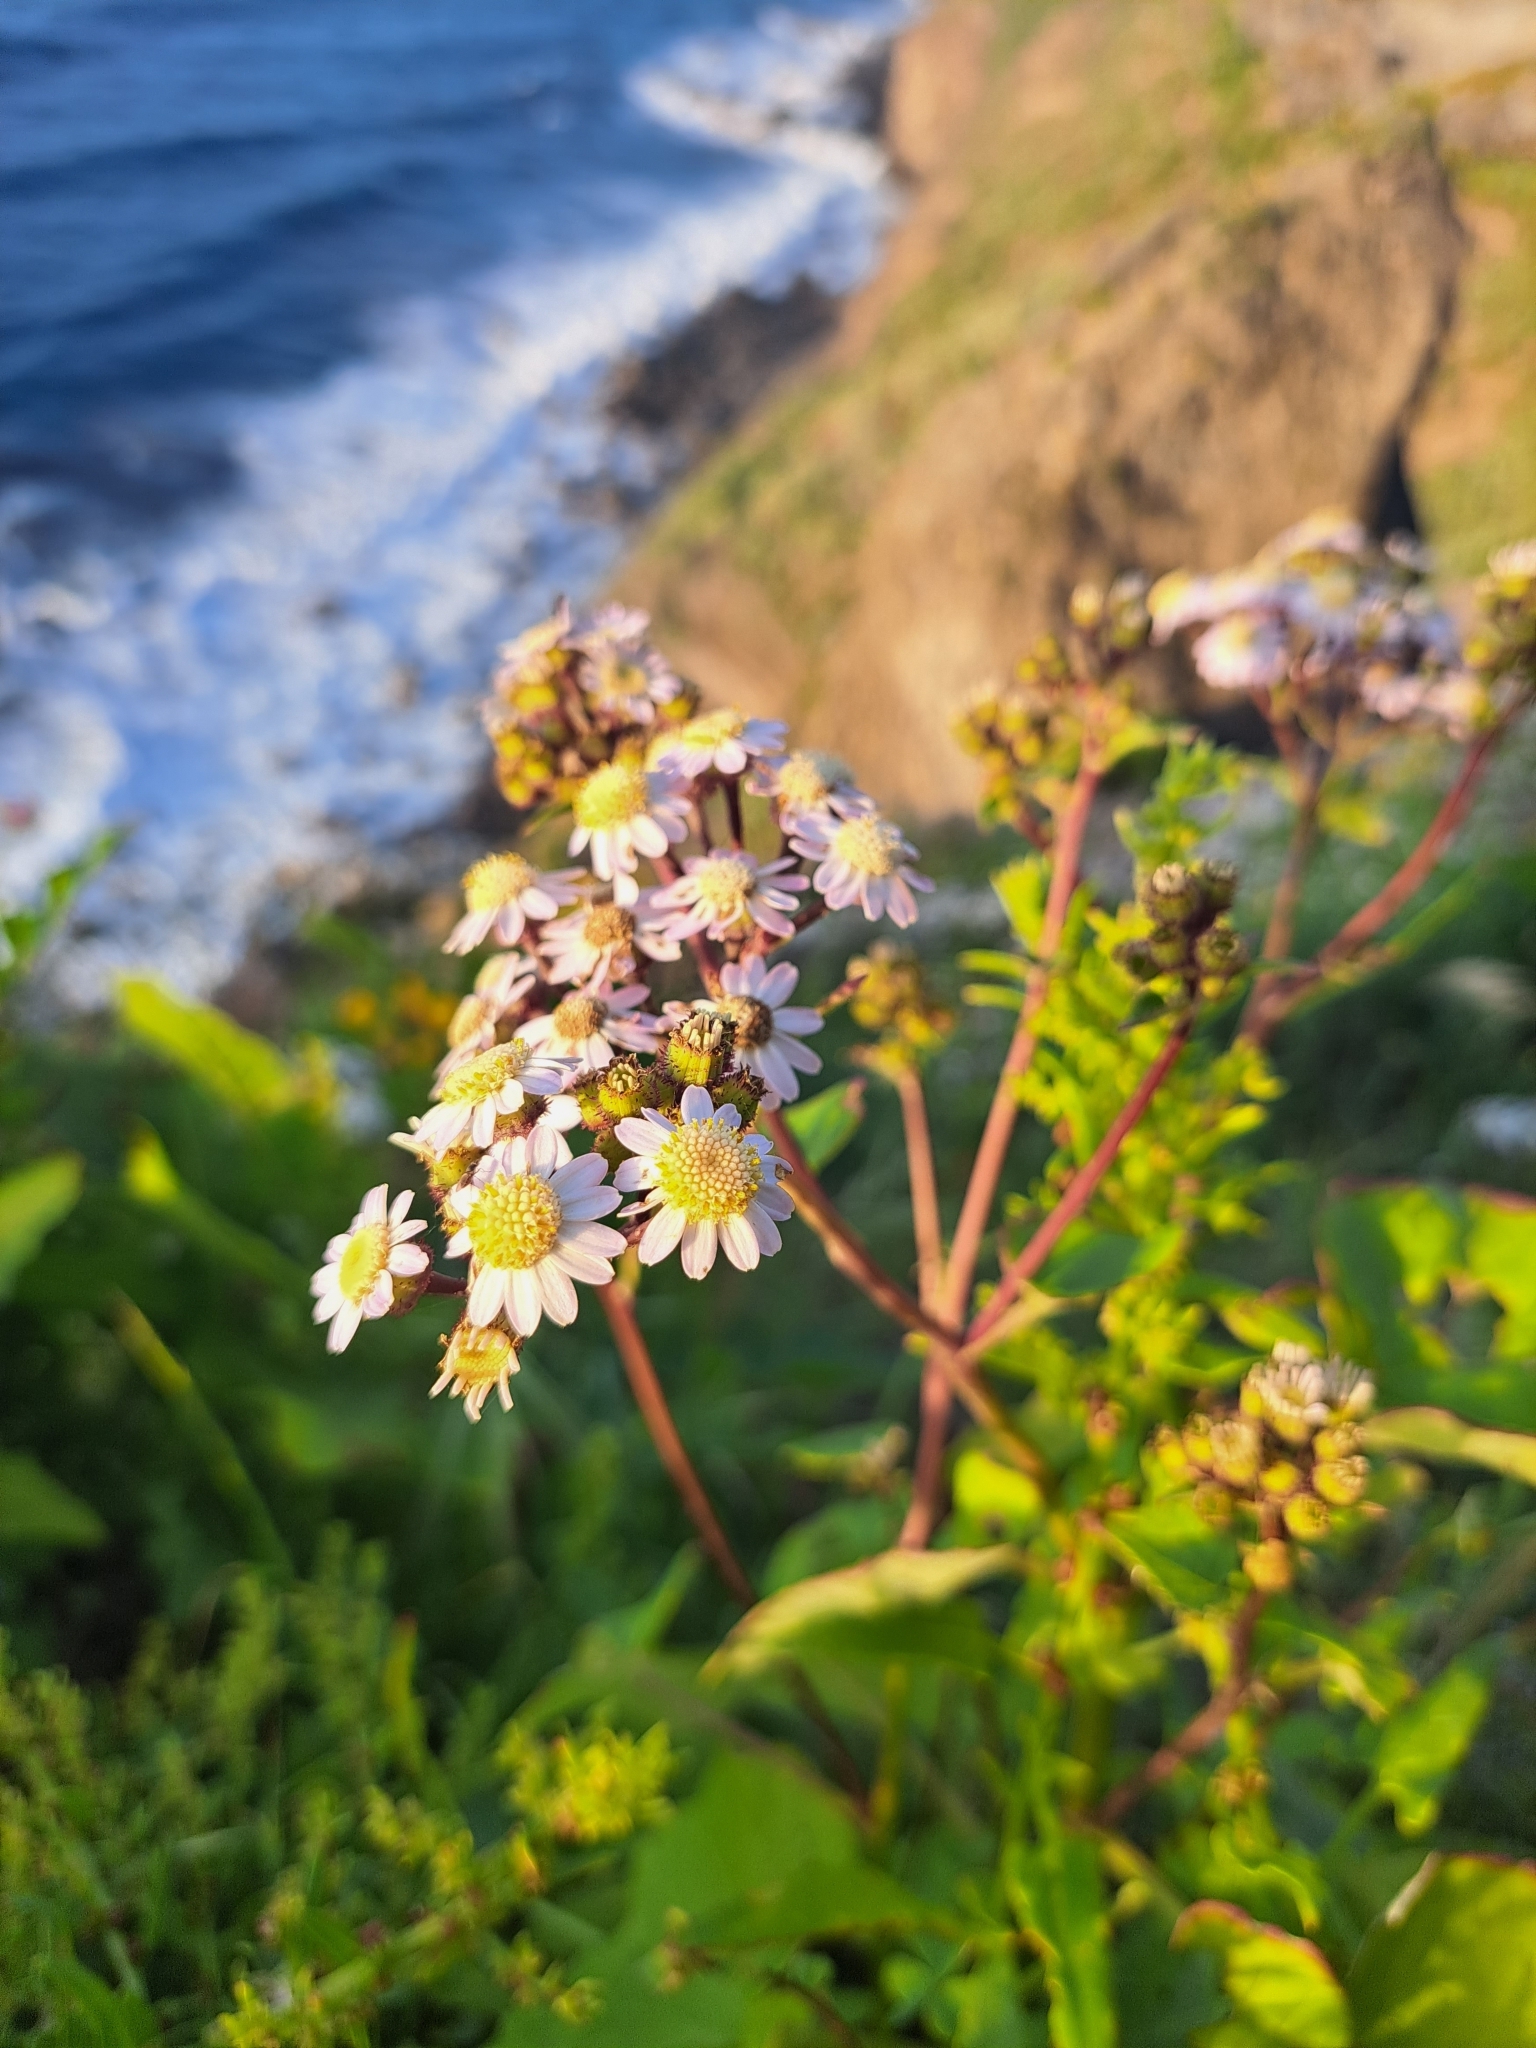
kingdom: Plantae
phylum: Tracheophyta
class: Magnoliopsida
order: Asterales
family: Asteraceae
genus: Pericallis
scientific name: Pericallis echinata
